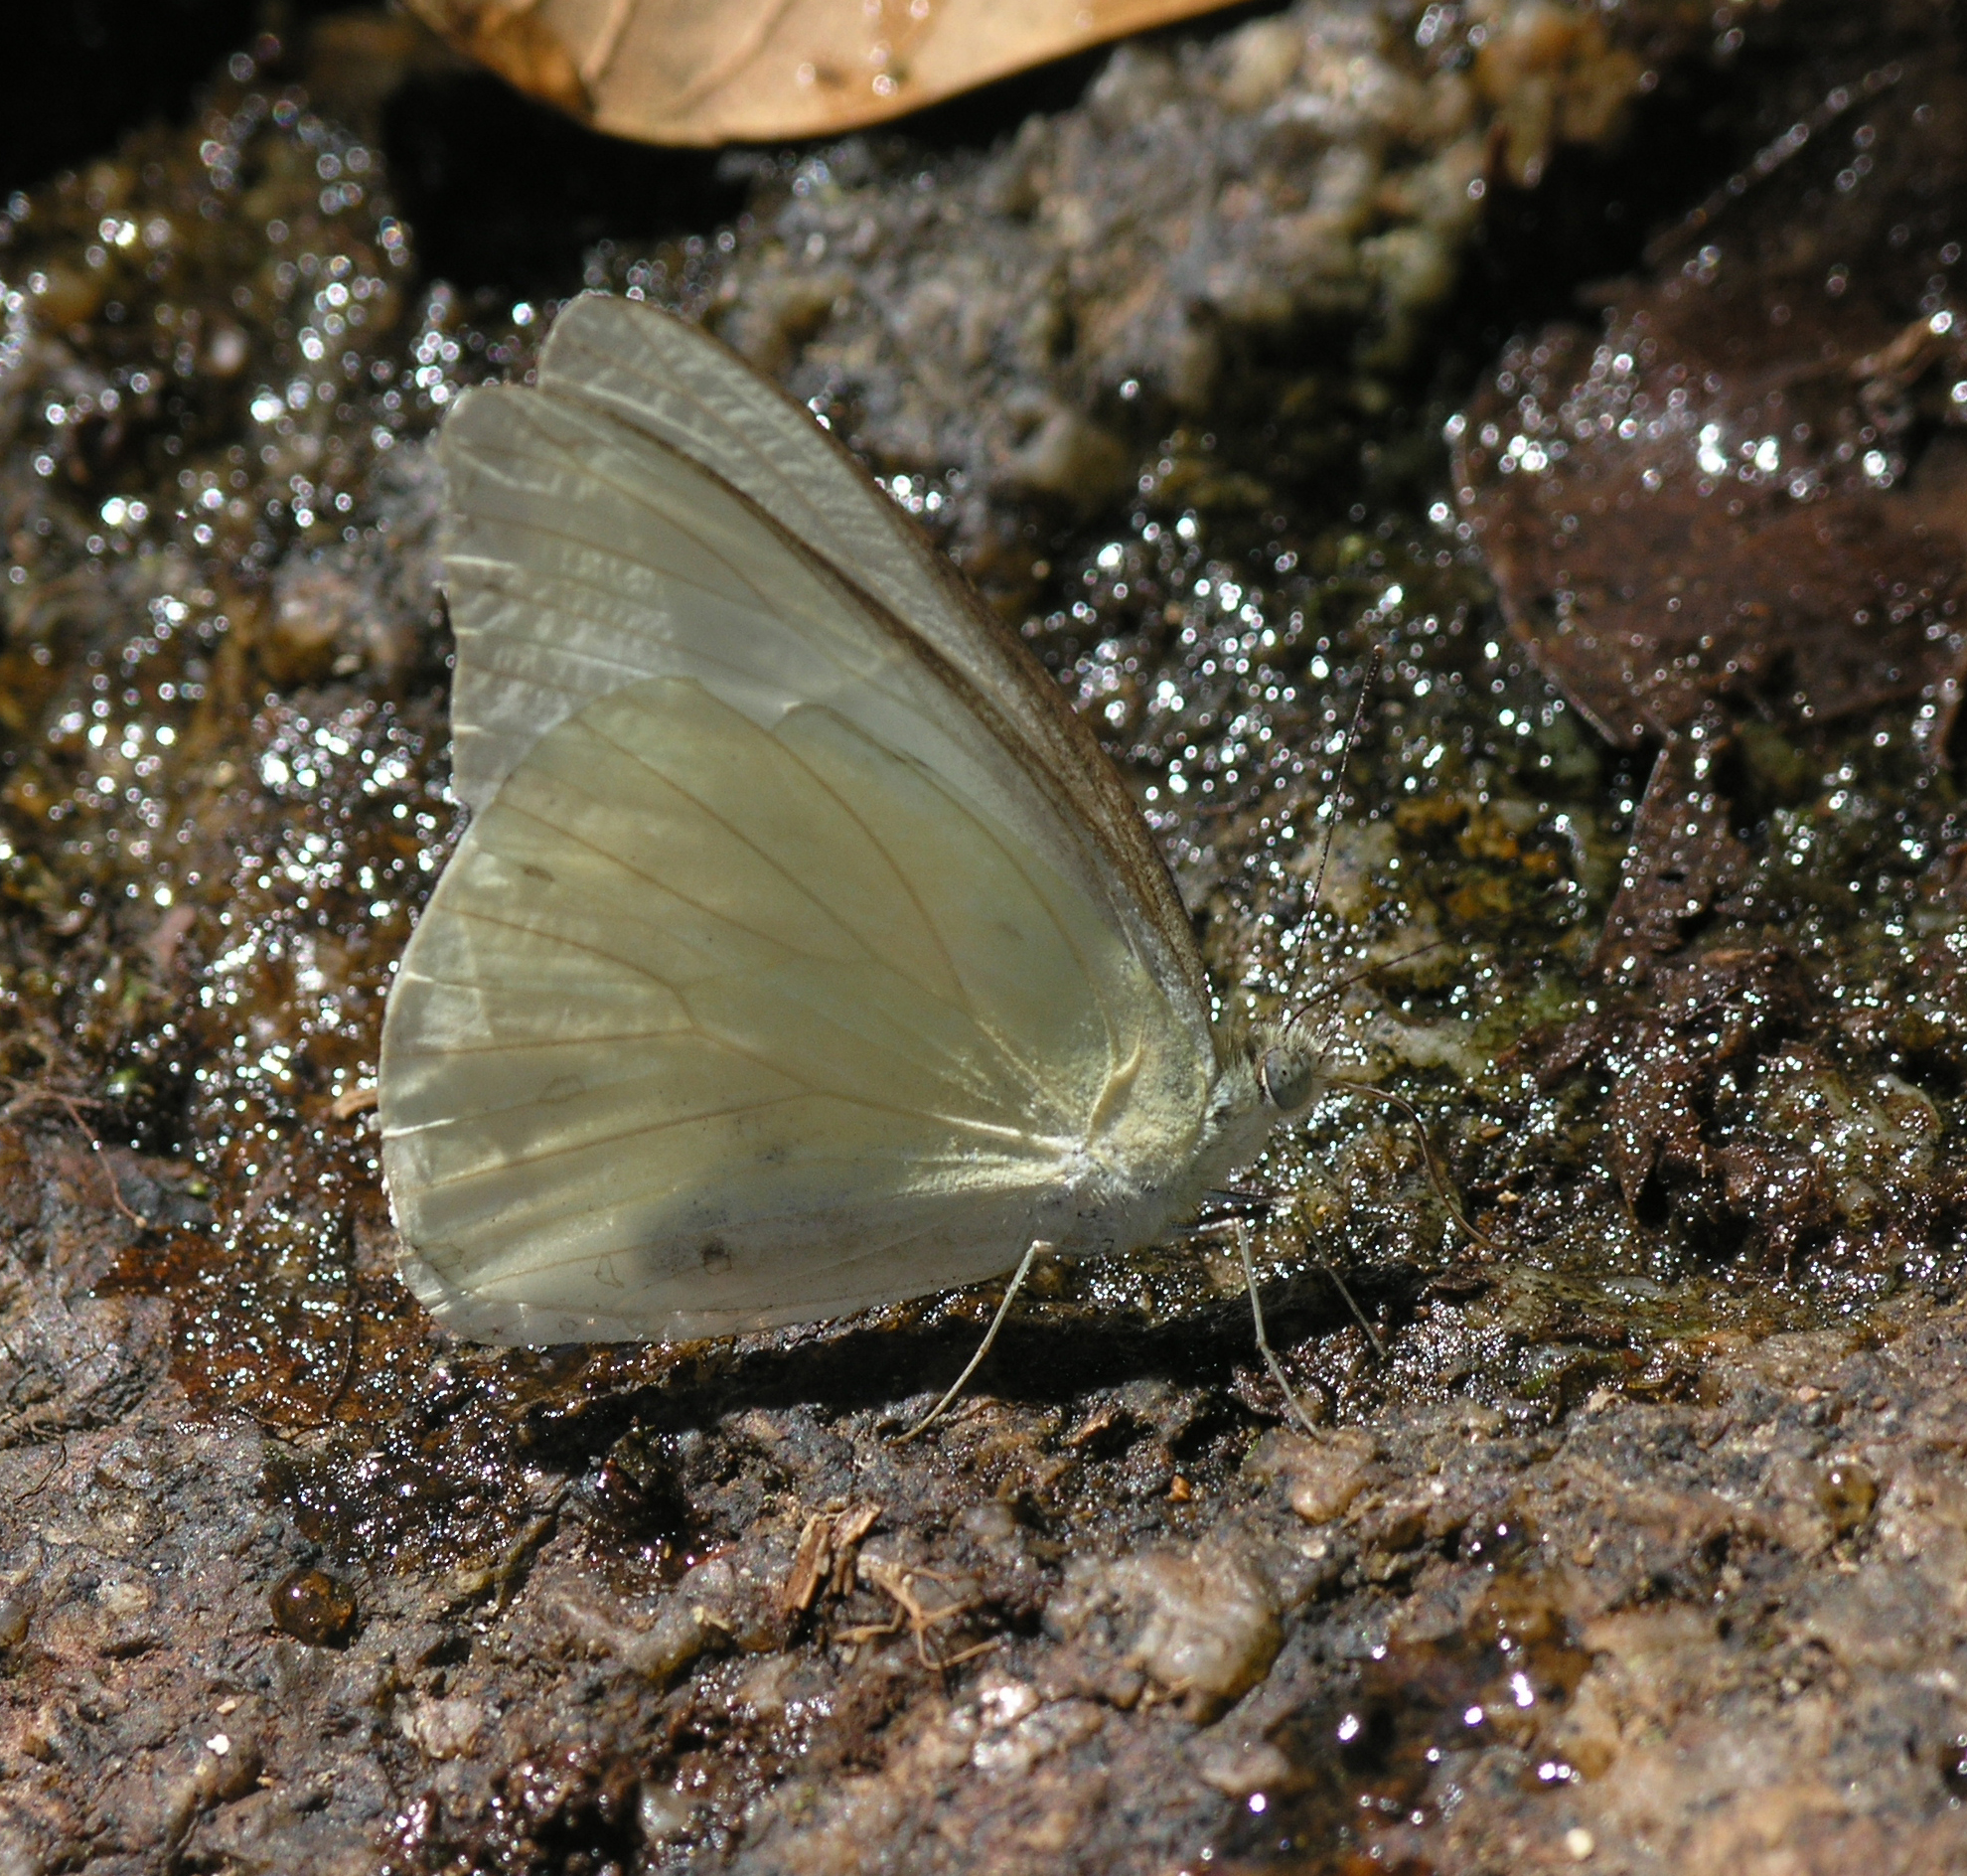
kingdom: Animalia
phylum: Arthropoda
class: Insecta
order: Lepidoptera
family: Pieridae
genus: Appias
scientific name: Appias albina
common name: Common albatross
